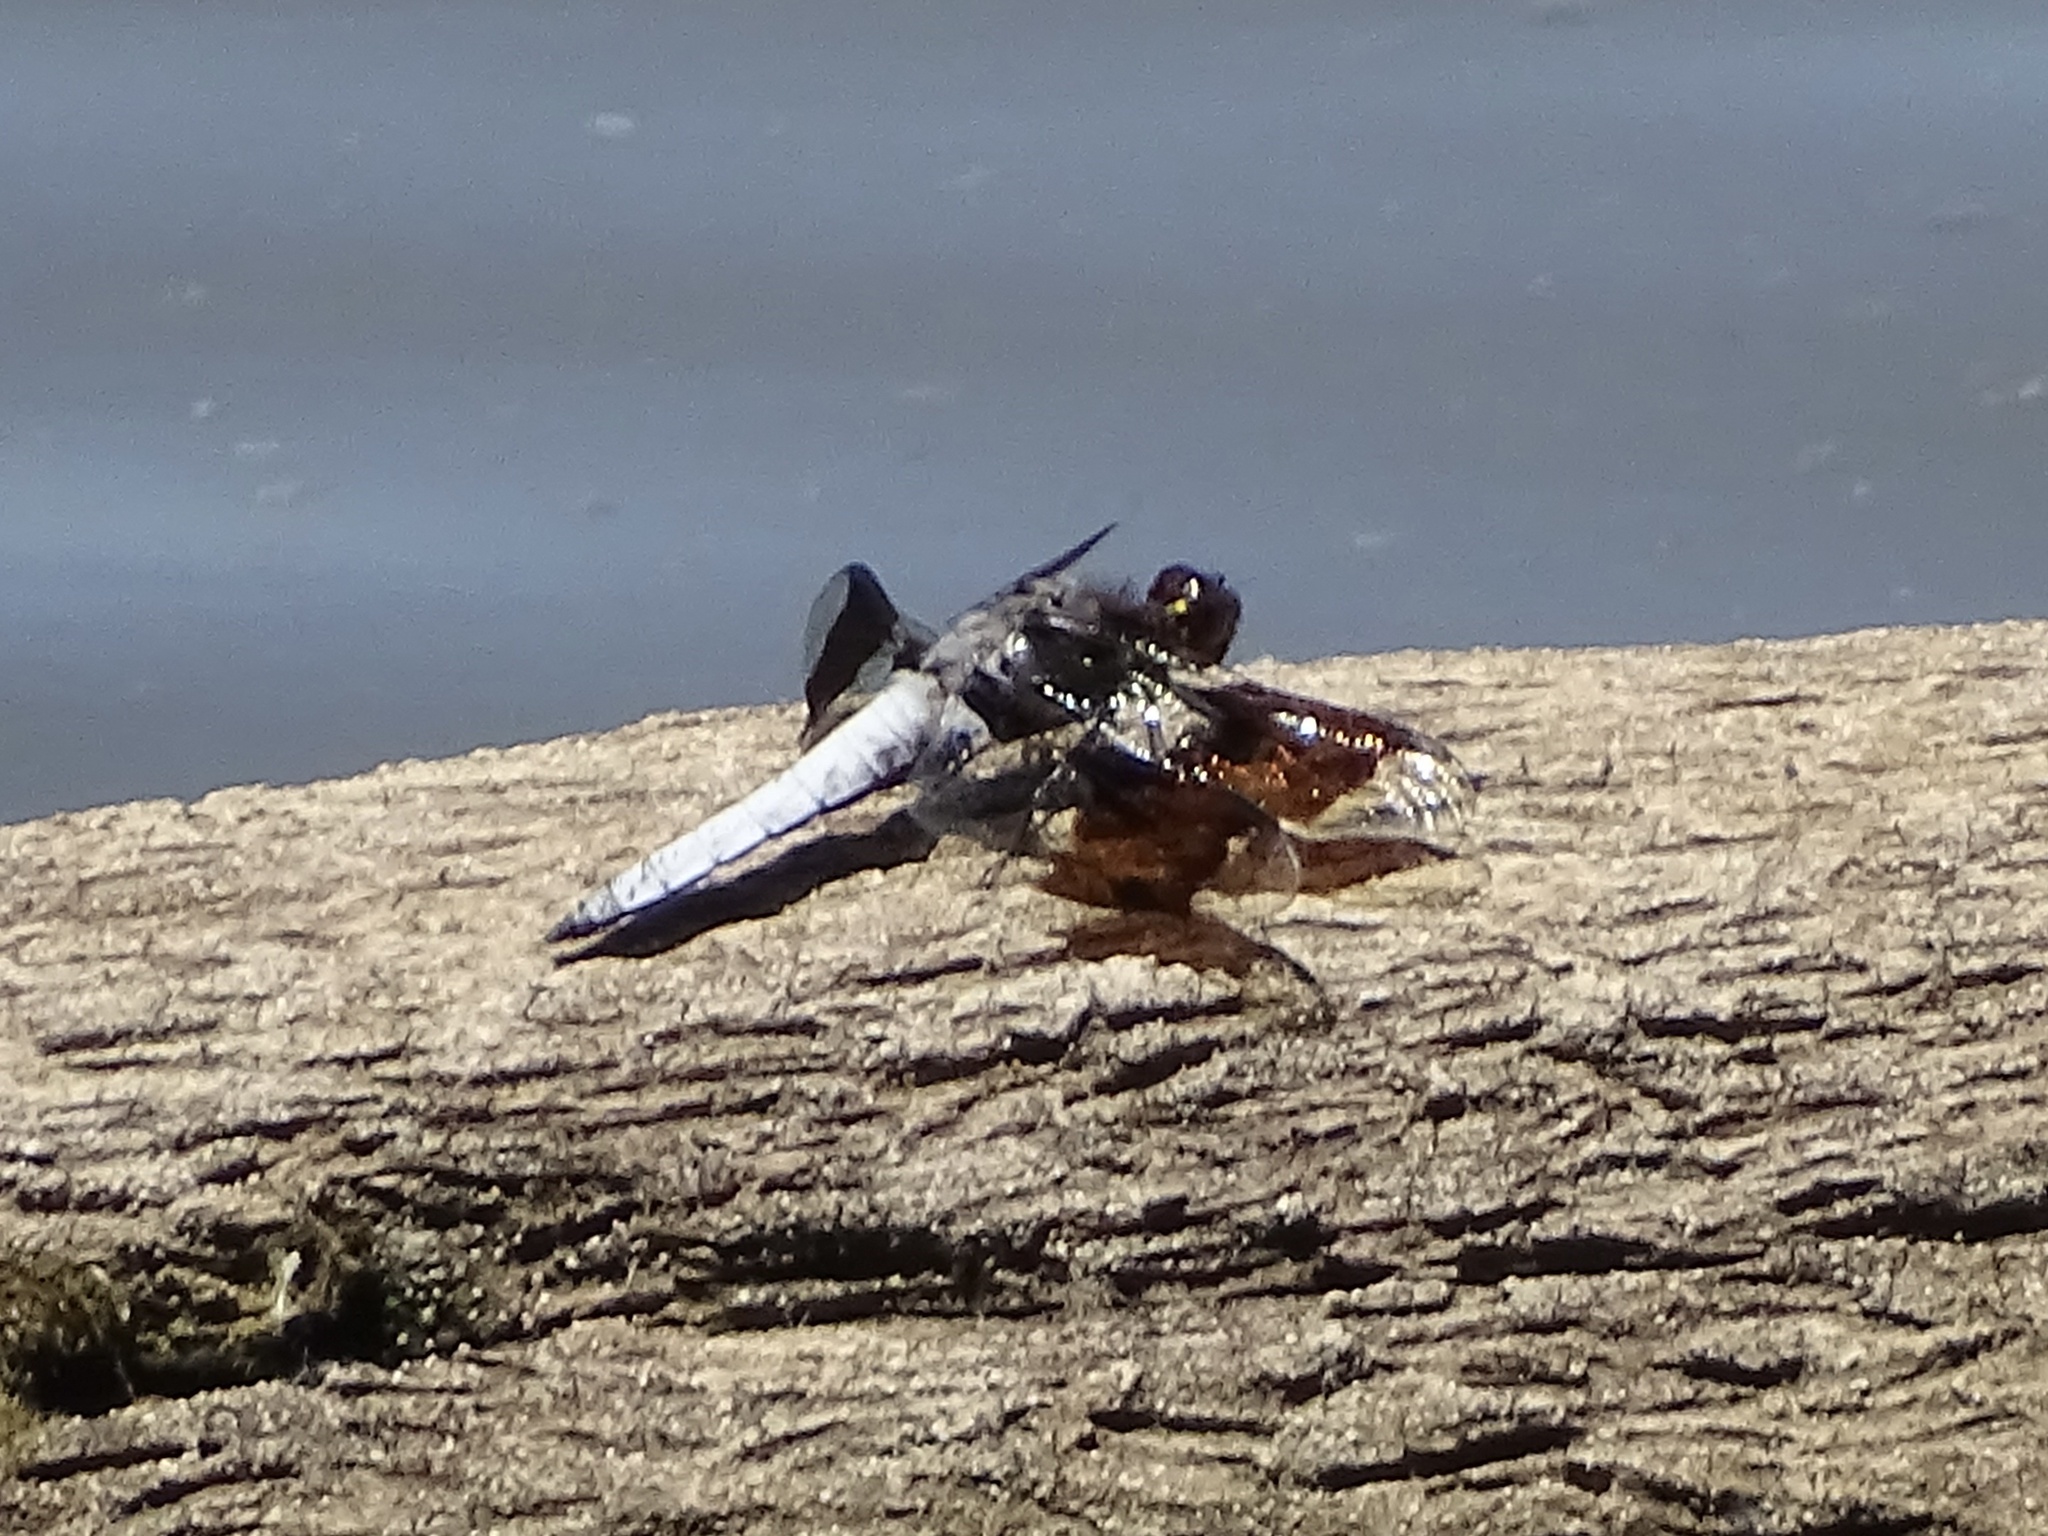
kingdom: Animalia
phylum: Arthropoda
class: Insecta
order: Odonata
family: Libellulidae
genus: Plathemis
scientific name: Plathemis lydia
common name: Common whitetail
